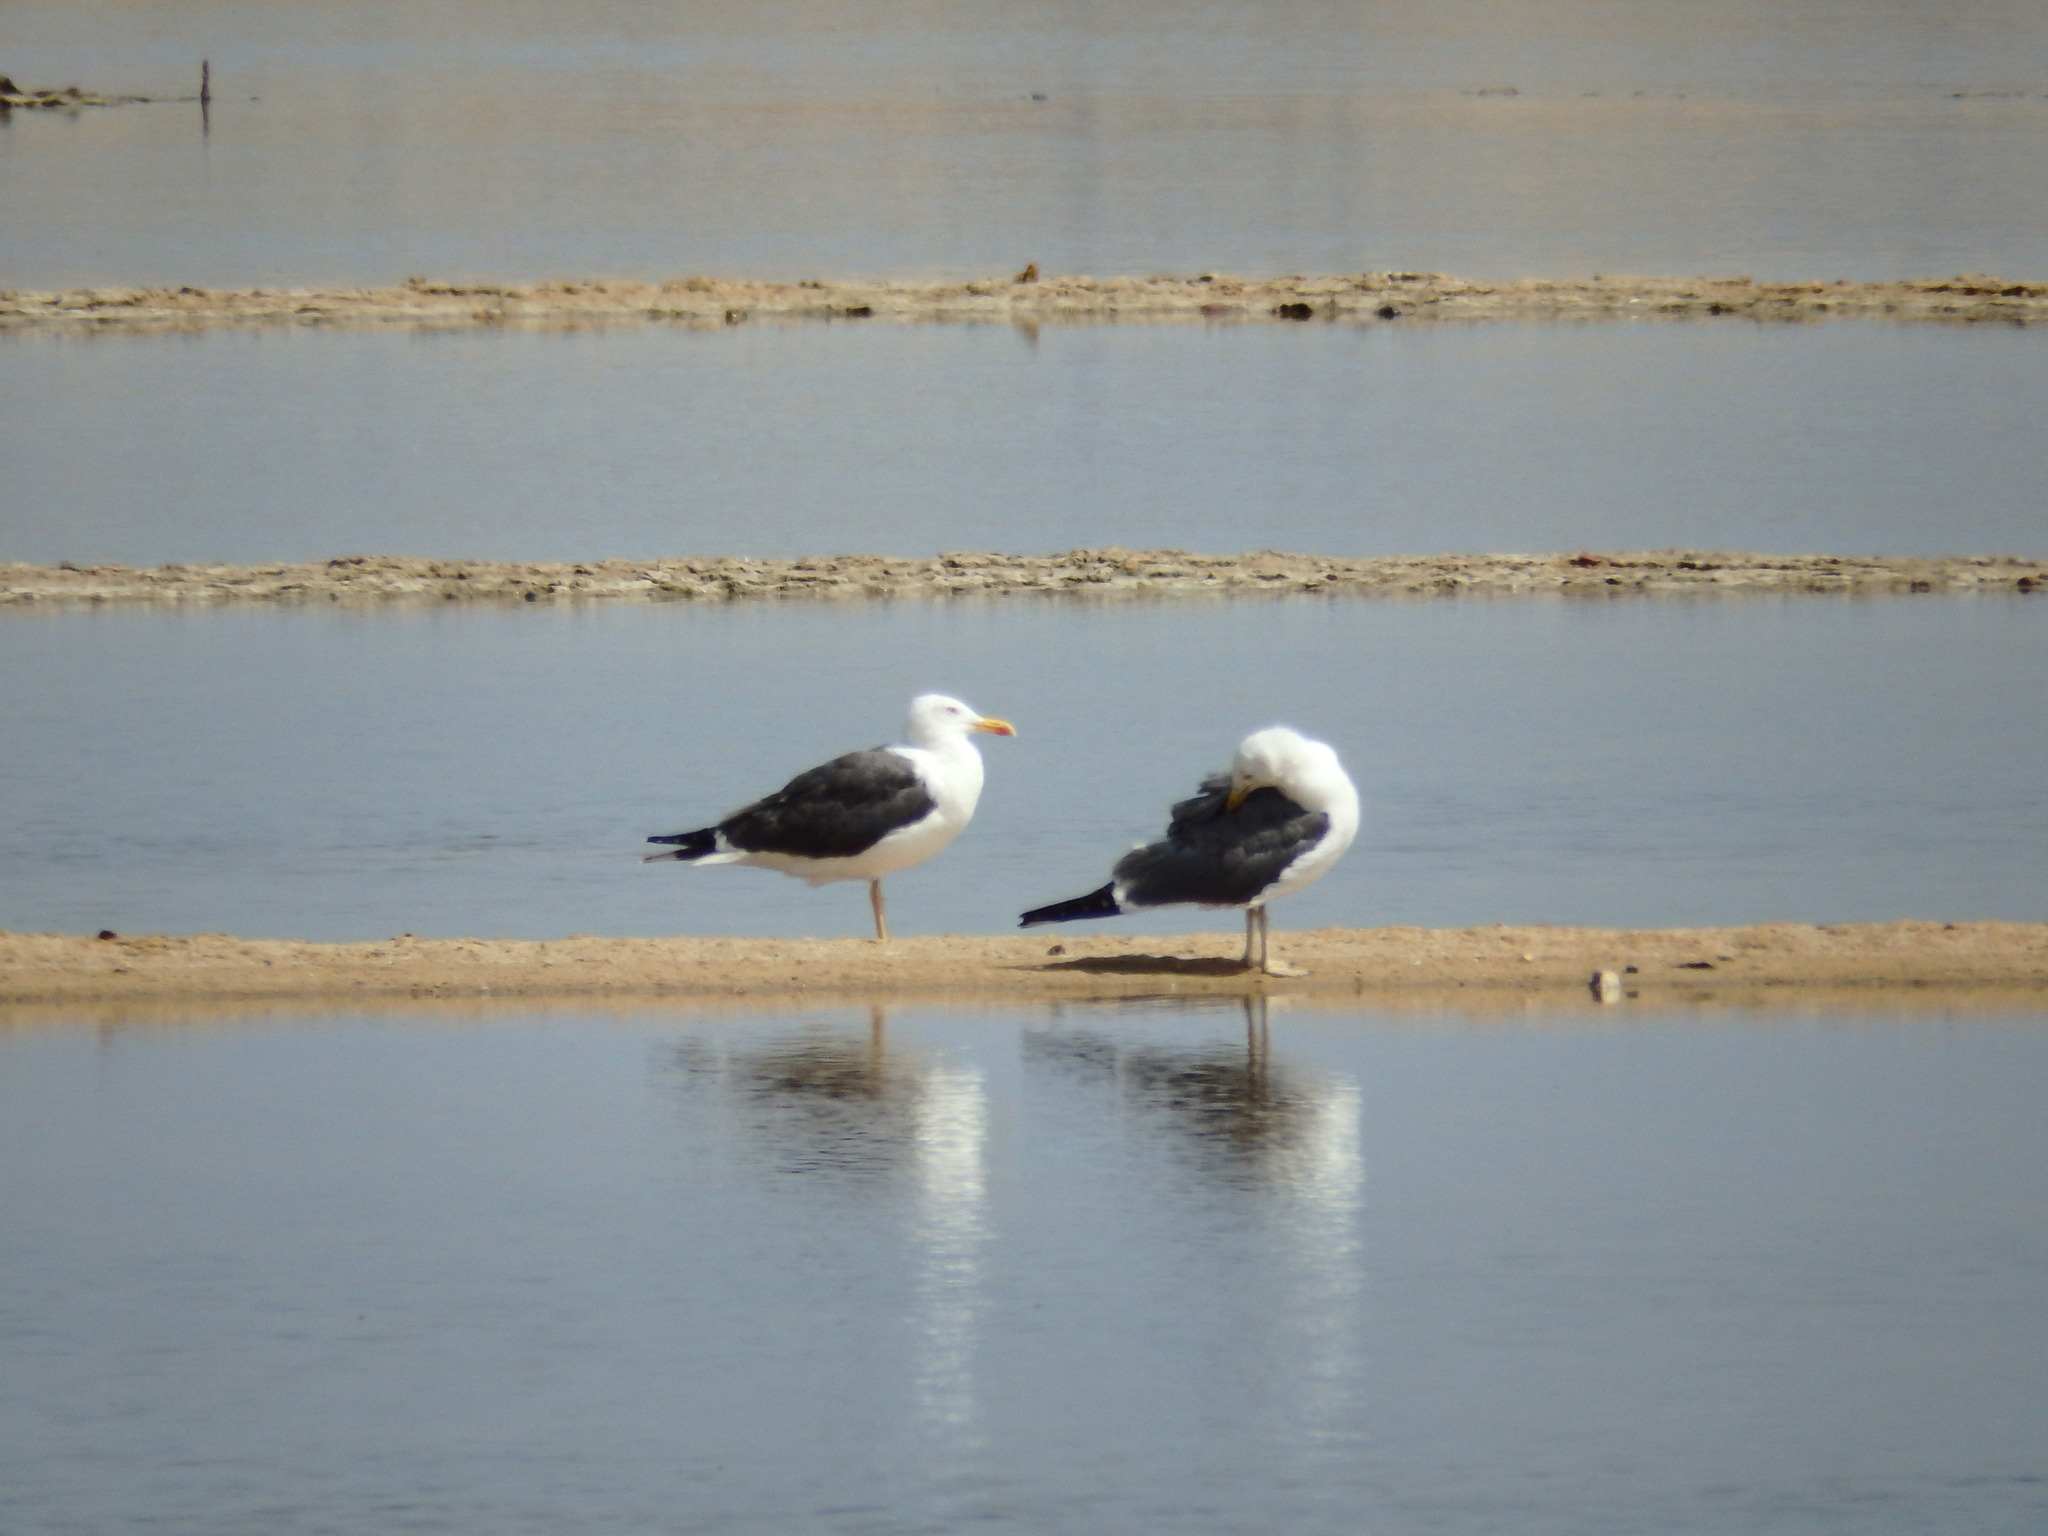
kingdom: Animalia
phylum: Chordata
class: Aves
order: Charadriiformes
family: Laridae
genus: Larus
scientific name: Larus fuscus
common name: Lesser black-backed gull
